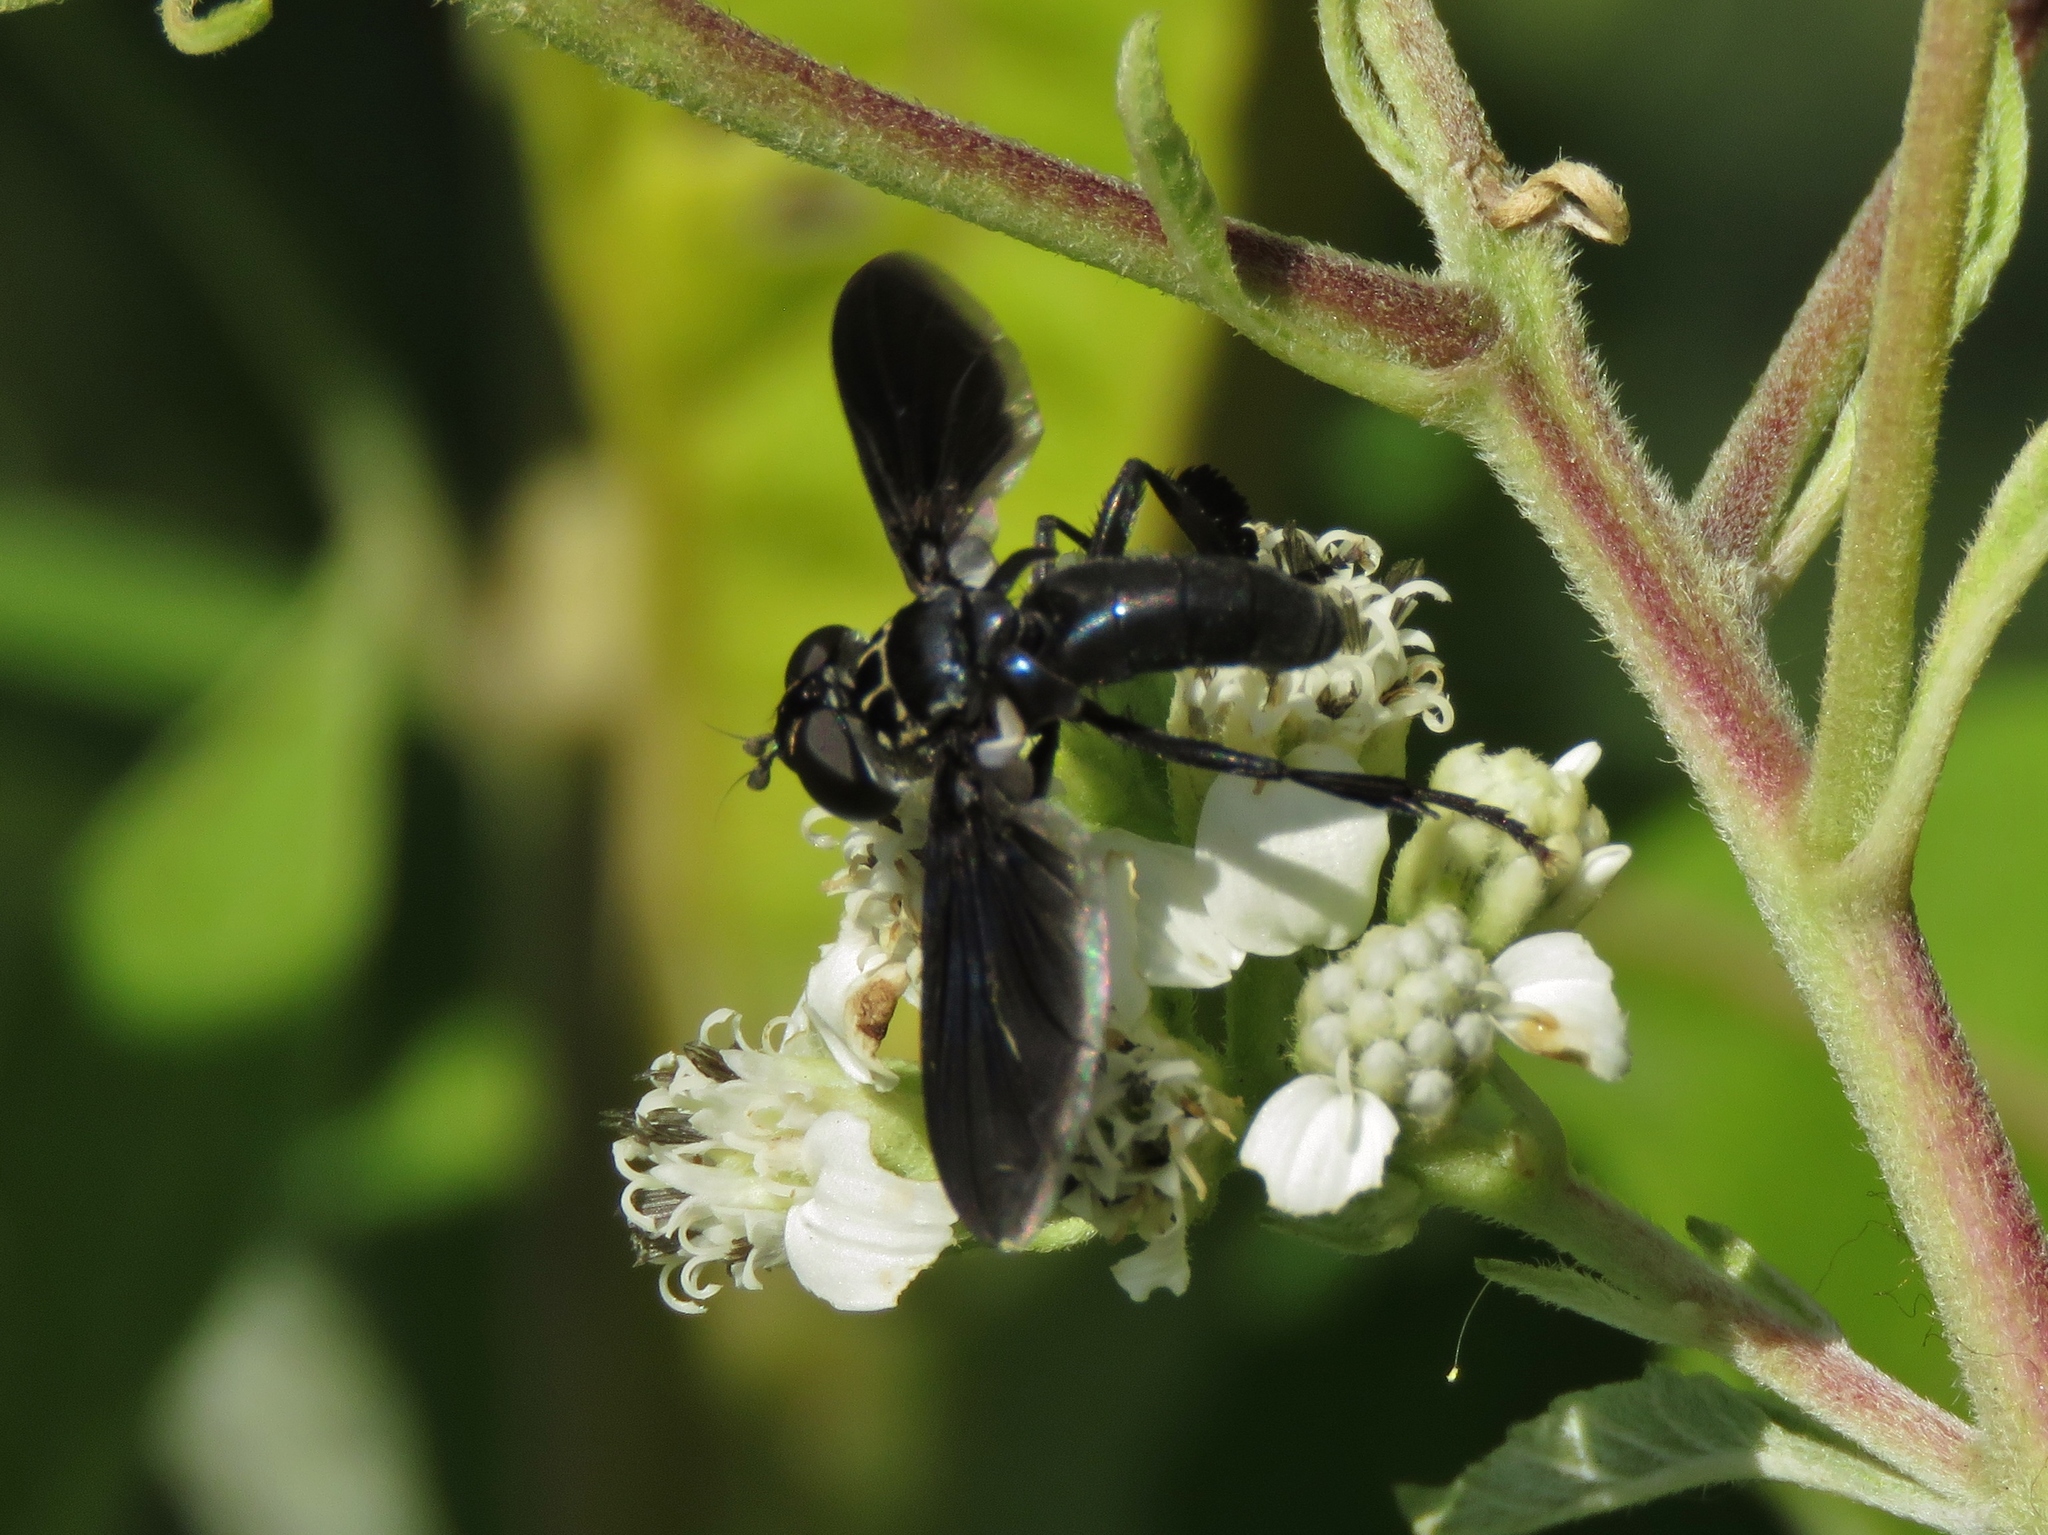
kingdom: Animalia
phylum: Arthropoda
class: Insecta
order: Diptera
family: Tachinidae
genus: Trichopoda
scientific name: Trichopoda lanipes
